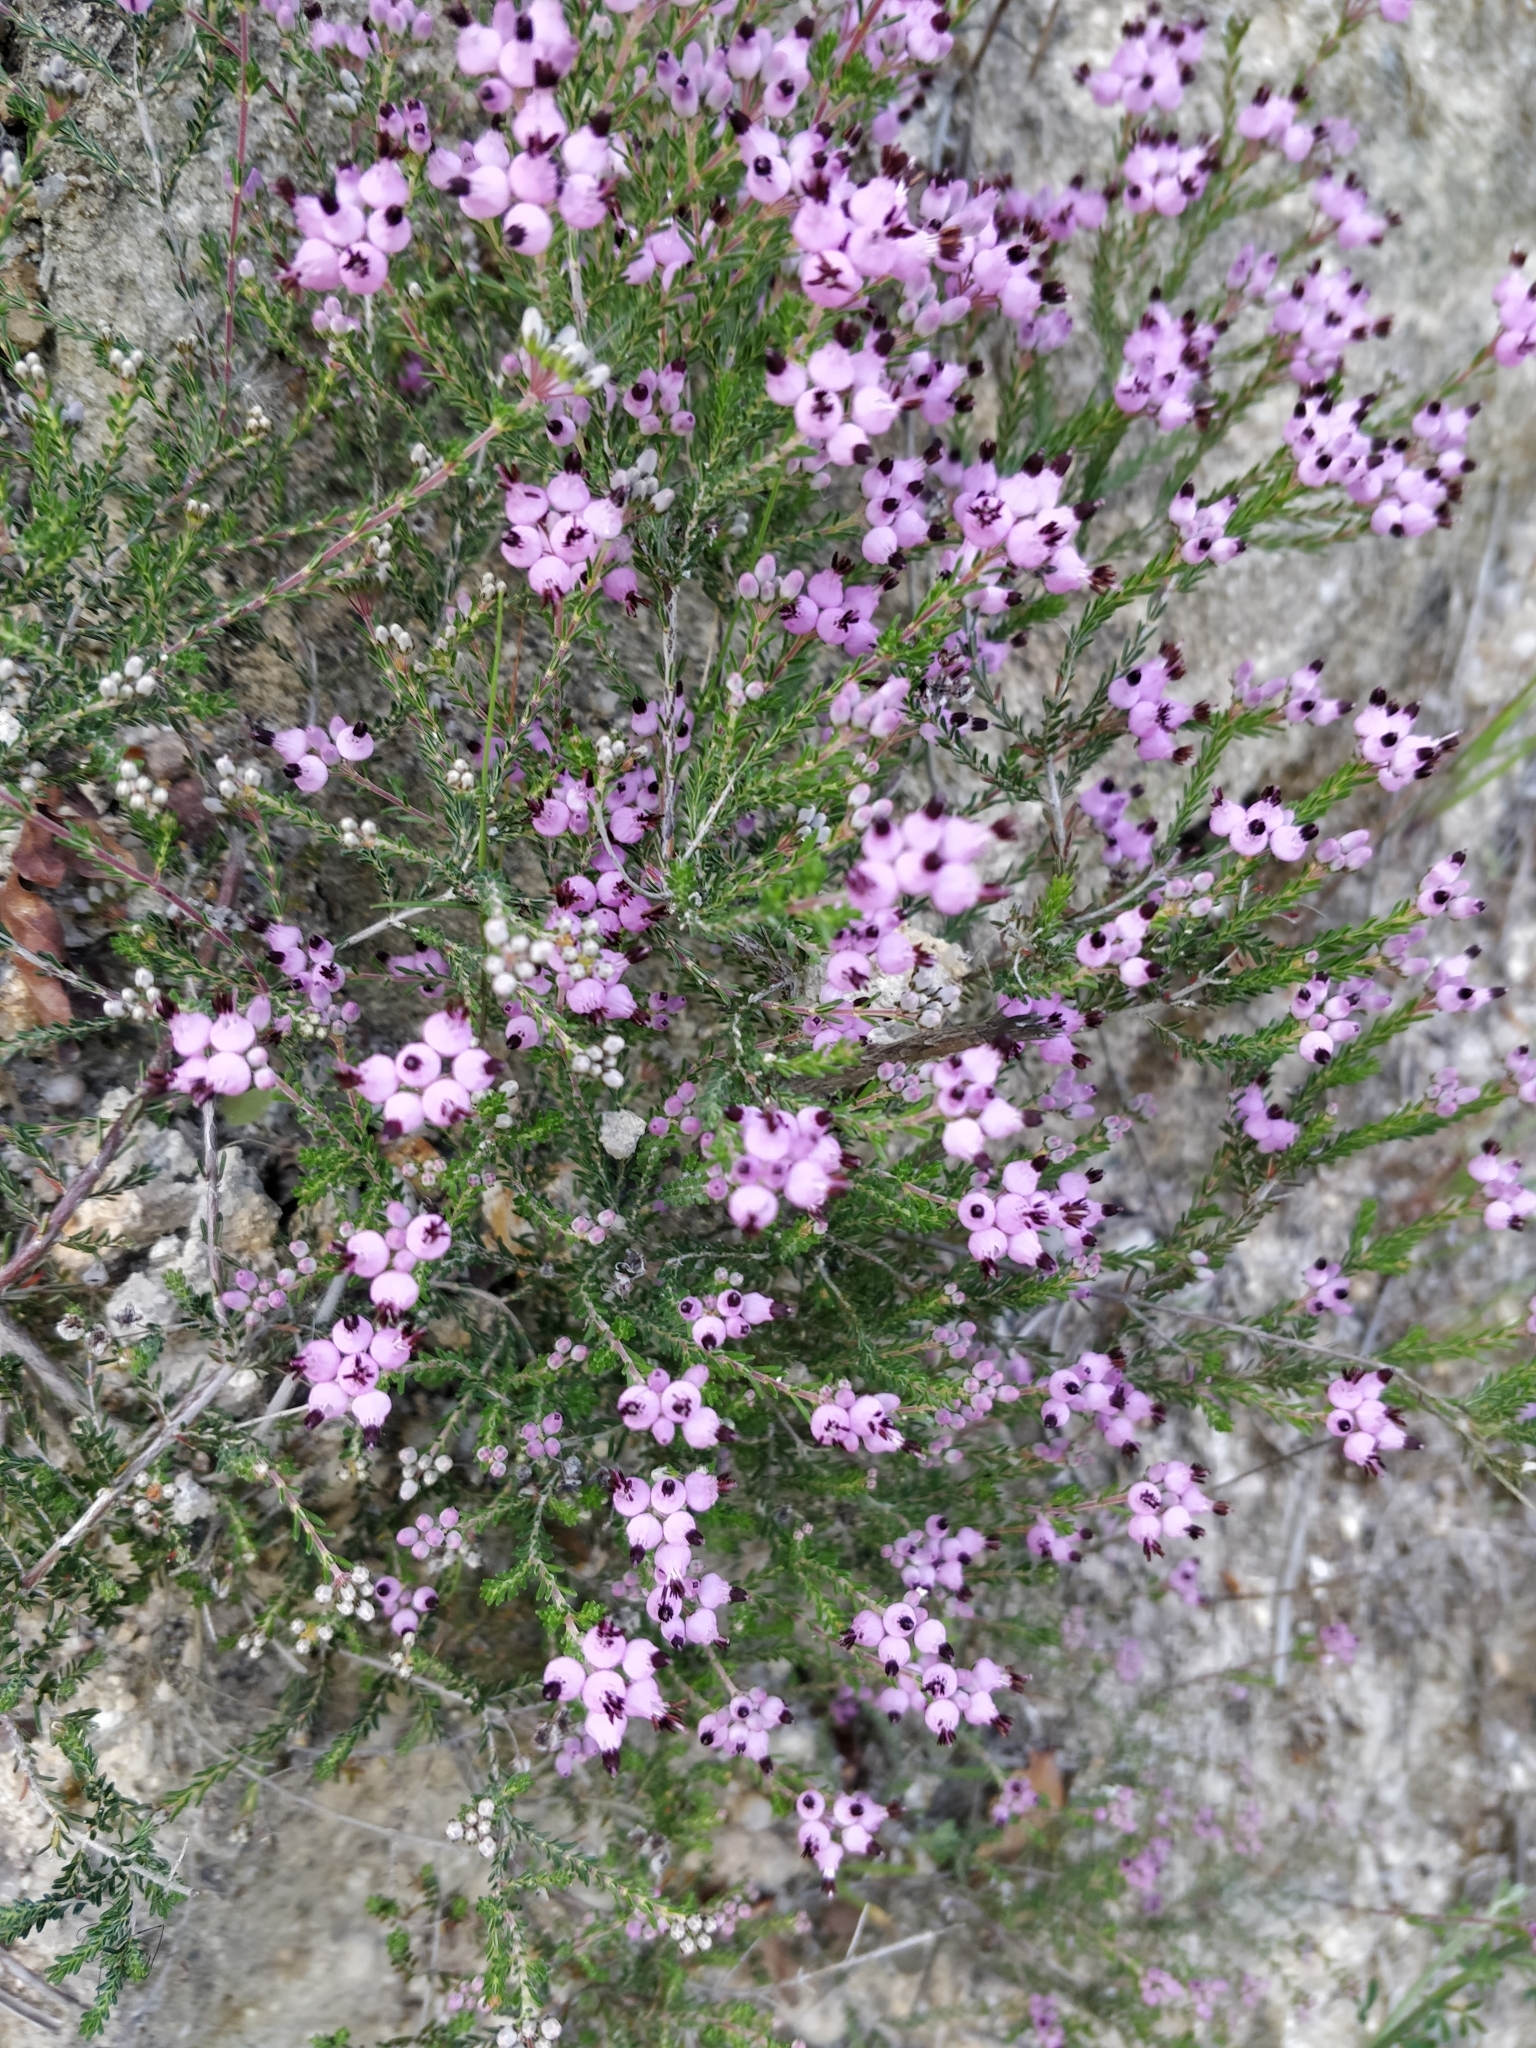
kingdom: Plantae
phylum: Tracheophyta
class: Magnoliopsida
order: Ericales
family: Ericaceae
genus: Erica
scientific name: Erica umbellata
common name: Dwarf spanish heath
